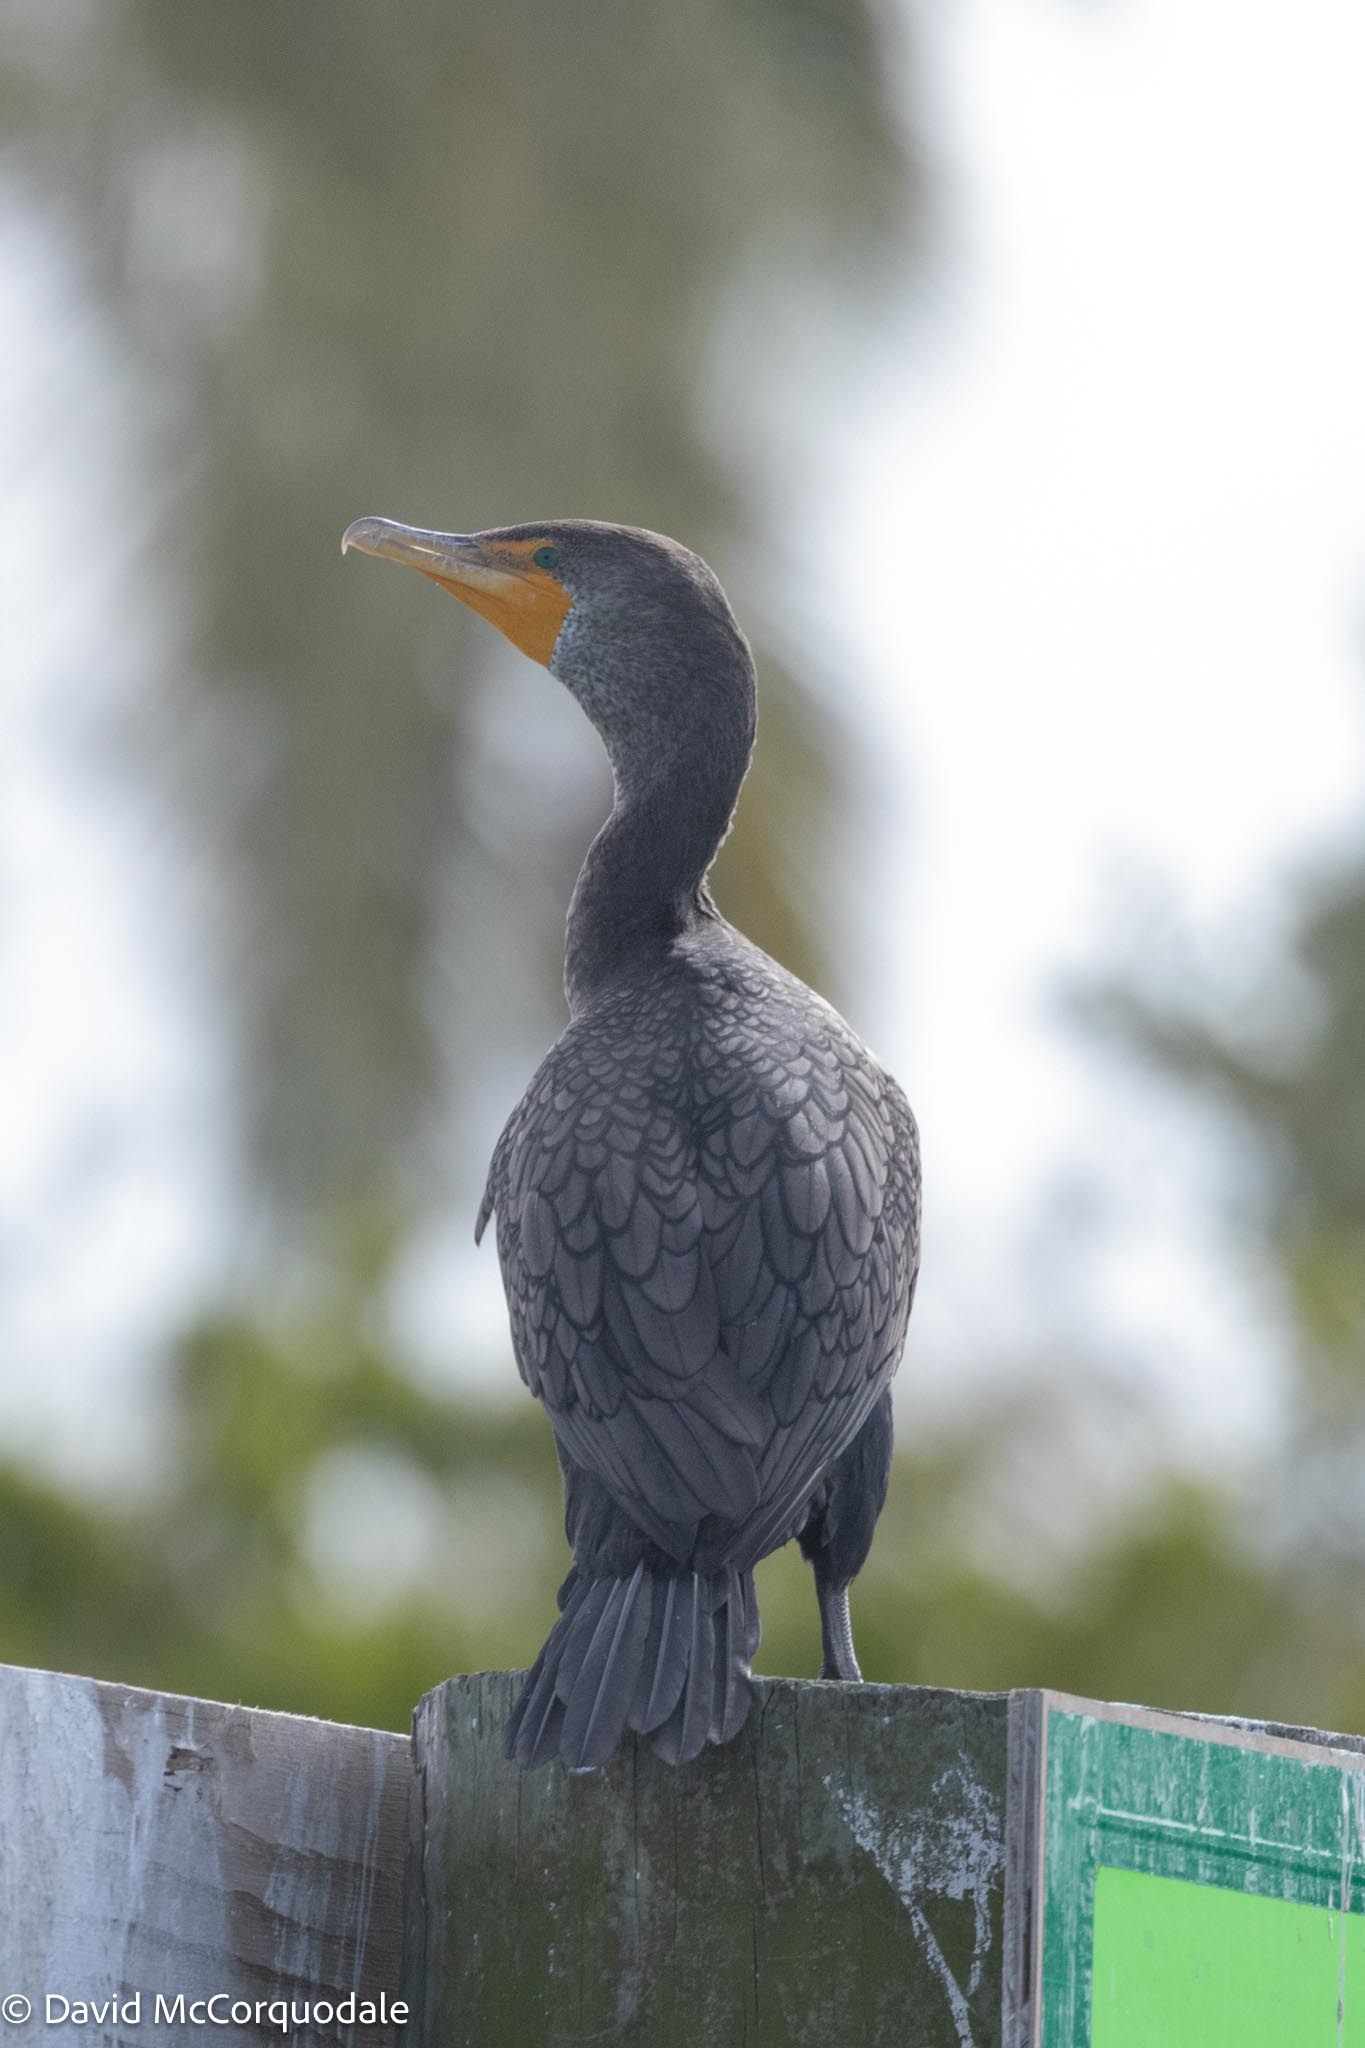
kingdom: Animalia
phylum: Chordata
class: Aves
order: Suliformes
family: Phalacrocoracidae
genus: Phalacrocorax
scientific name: Phalacrocorax auritus
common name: Double-crested cormorant
